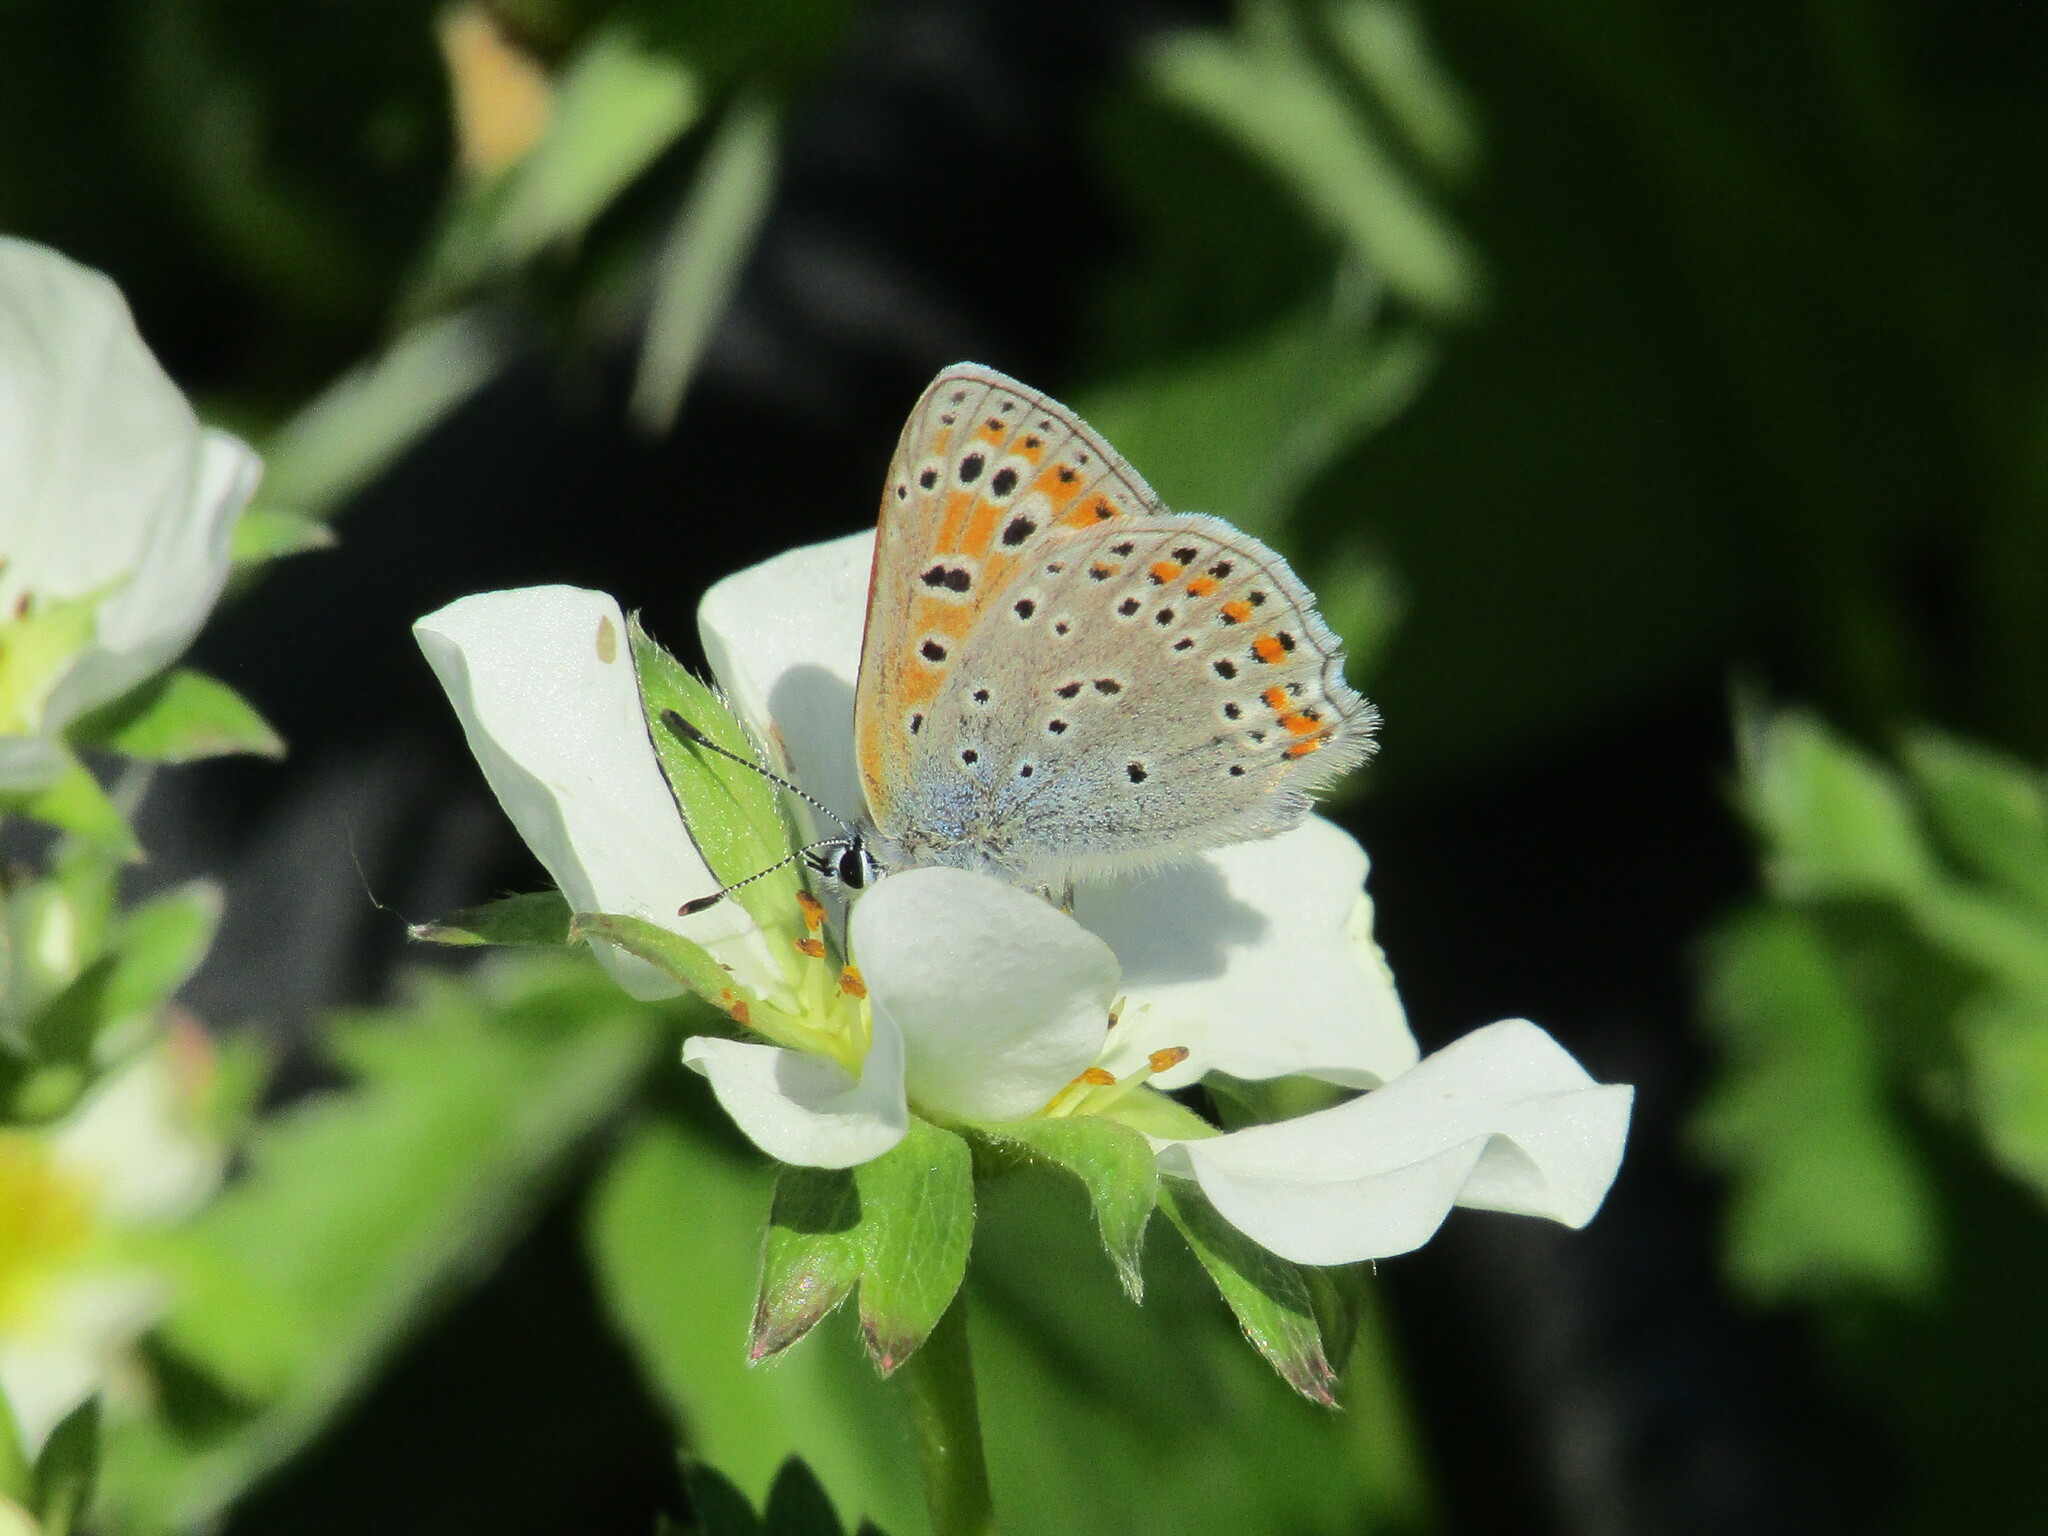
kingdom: Animalia
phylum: Arthropoda
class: Insecta
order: Lepidoptera
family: Lycaenidae
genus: Thersamonia
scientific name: Thersamonia thersamon
